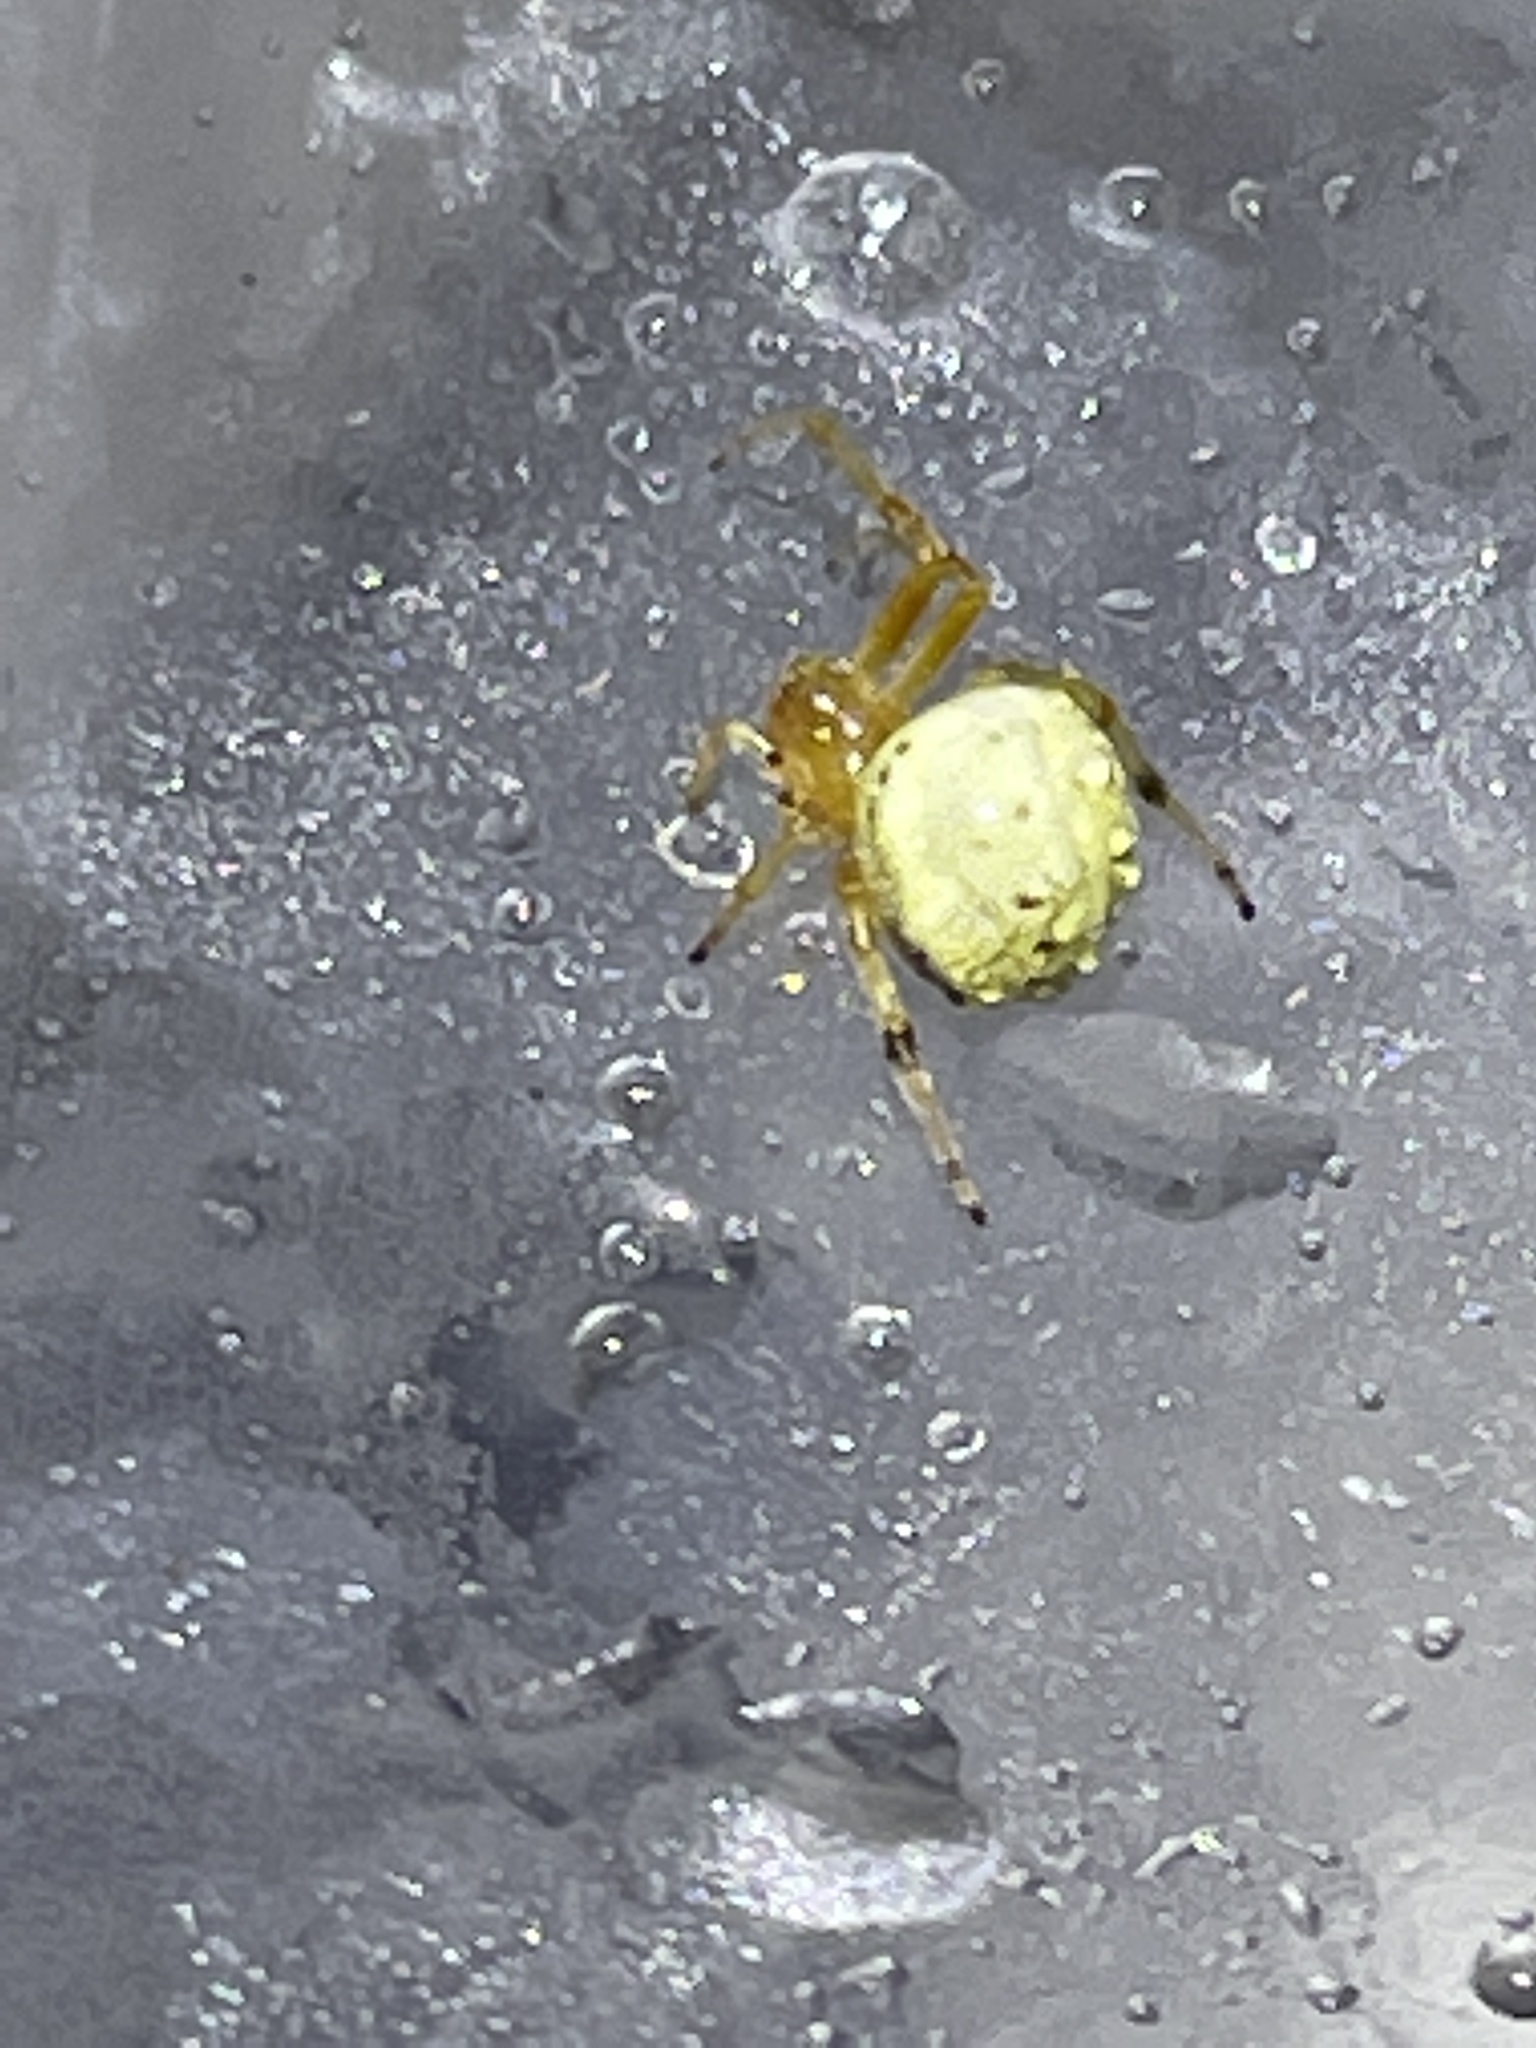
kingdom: Animalia
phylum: Arthropoda
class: Arachnida
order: Araneae
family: Araneidae
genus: Araneus
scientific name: Araneus thaddeus
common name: Lattice orbweaver
